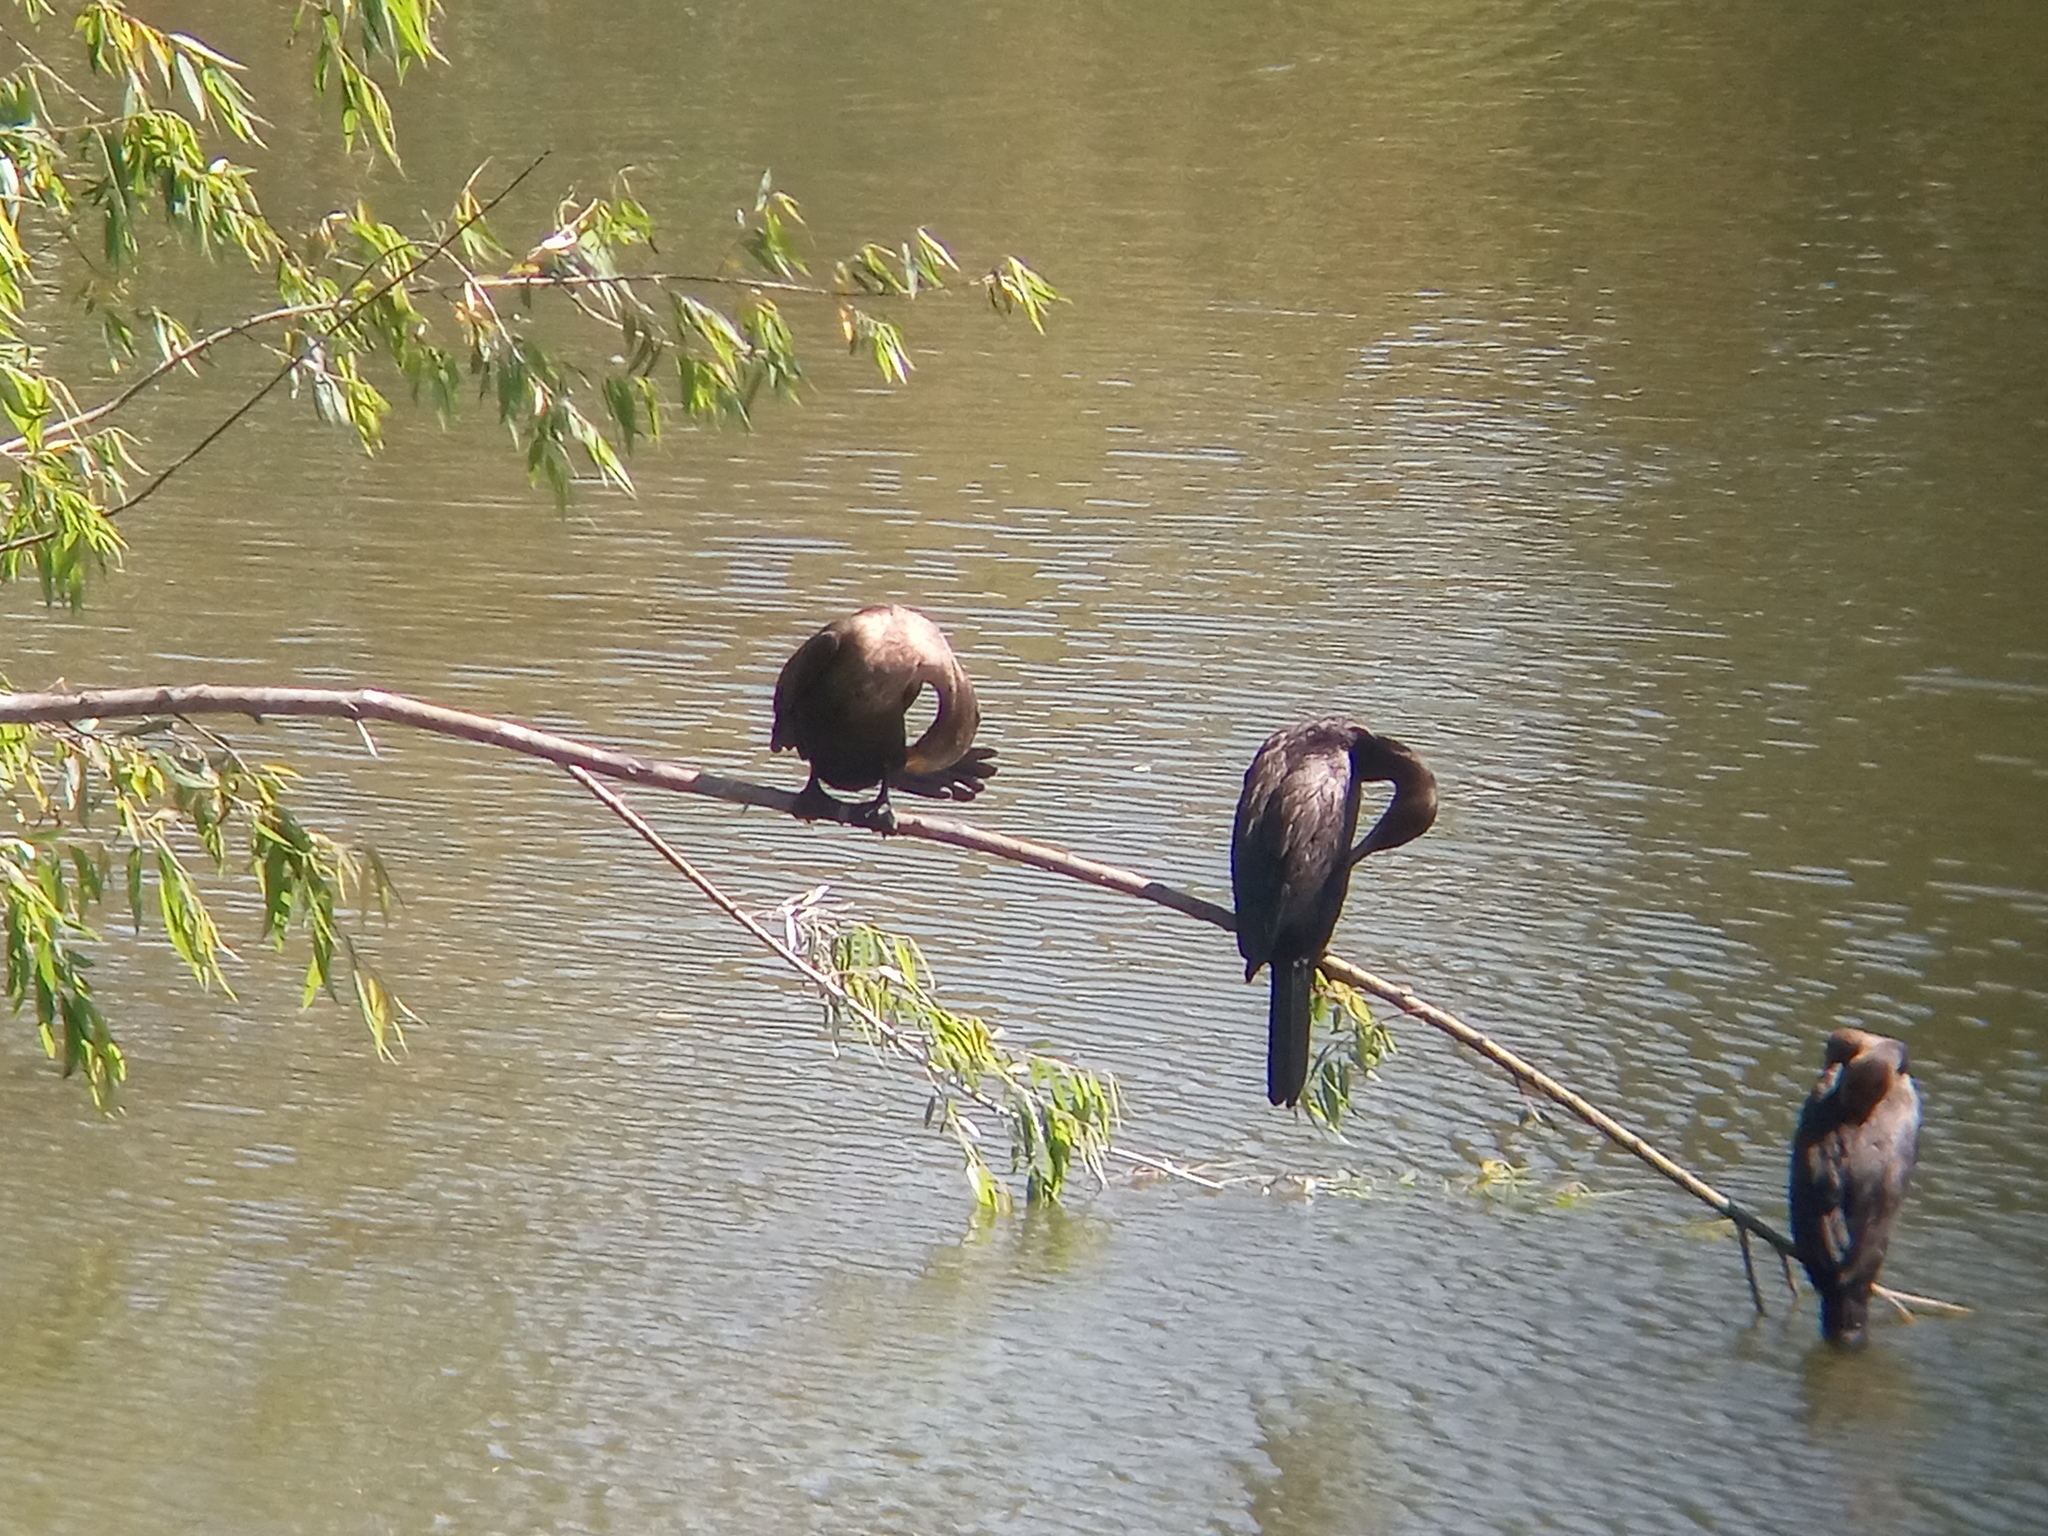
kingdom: Animalia
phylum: Chordata
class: Aves
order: Suliformes
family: Phalacrocoracidae
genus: Phalacrocorax
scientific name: Phalacrocorax brasilianus
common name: Neotropic cormorant
